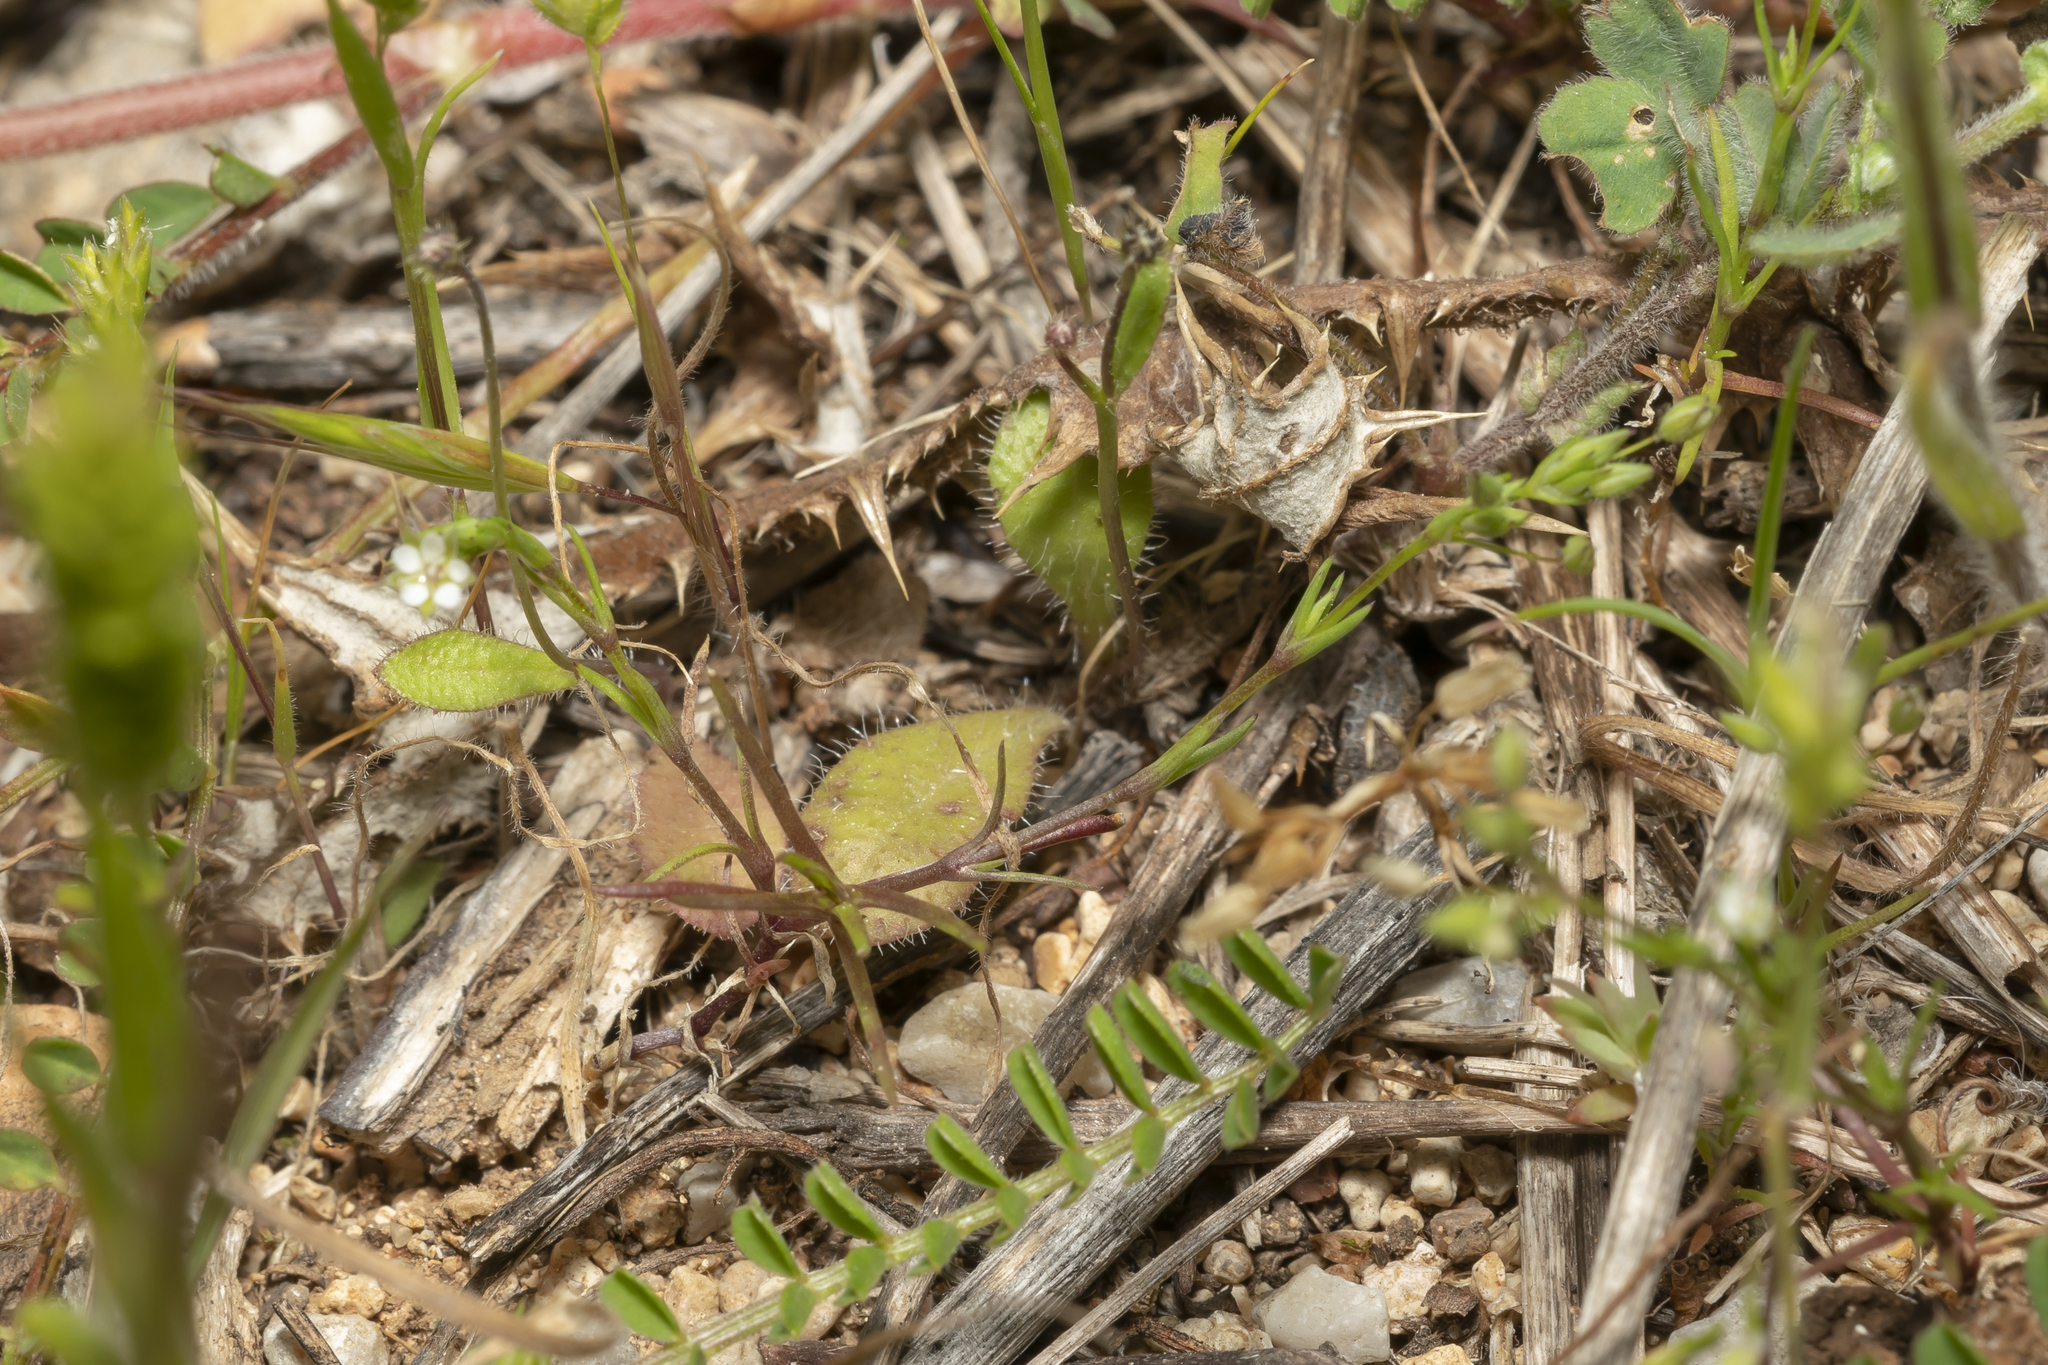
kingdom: Plantae
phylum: Tracheophyta
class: Magnoliopsida
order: Caryophyllales
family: Caryophyllaceae
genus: Sabulina
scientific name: Sabulina tenuifolia
